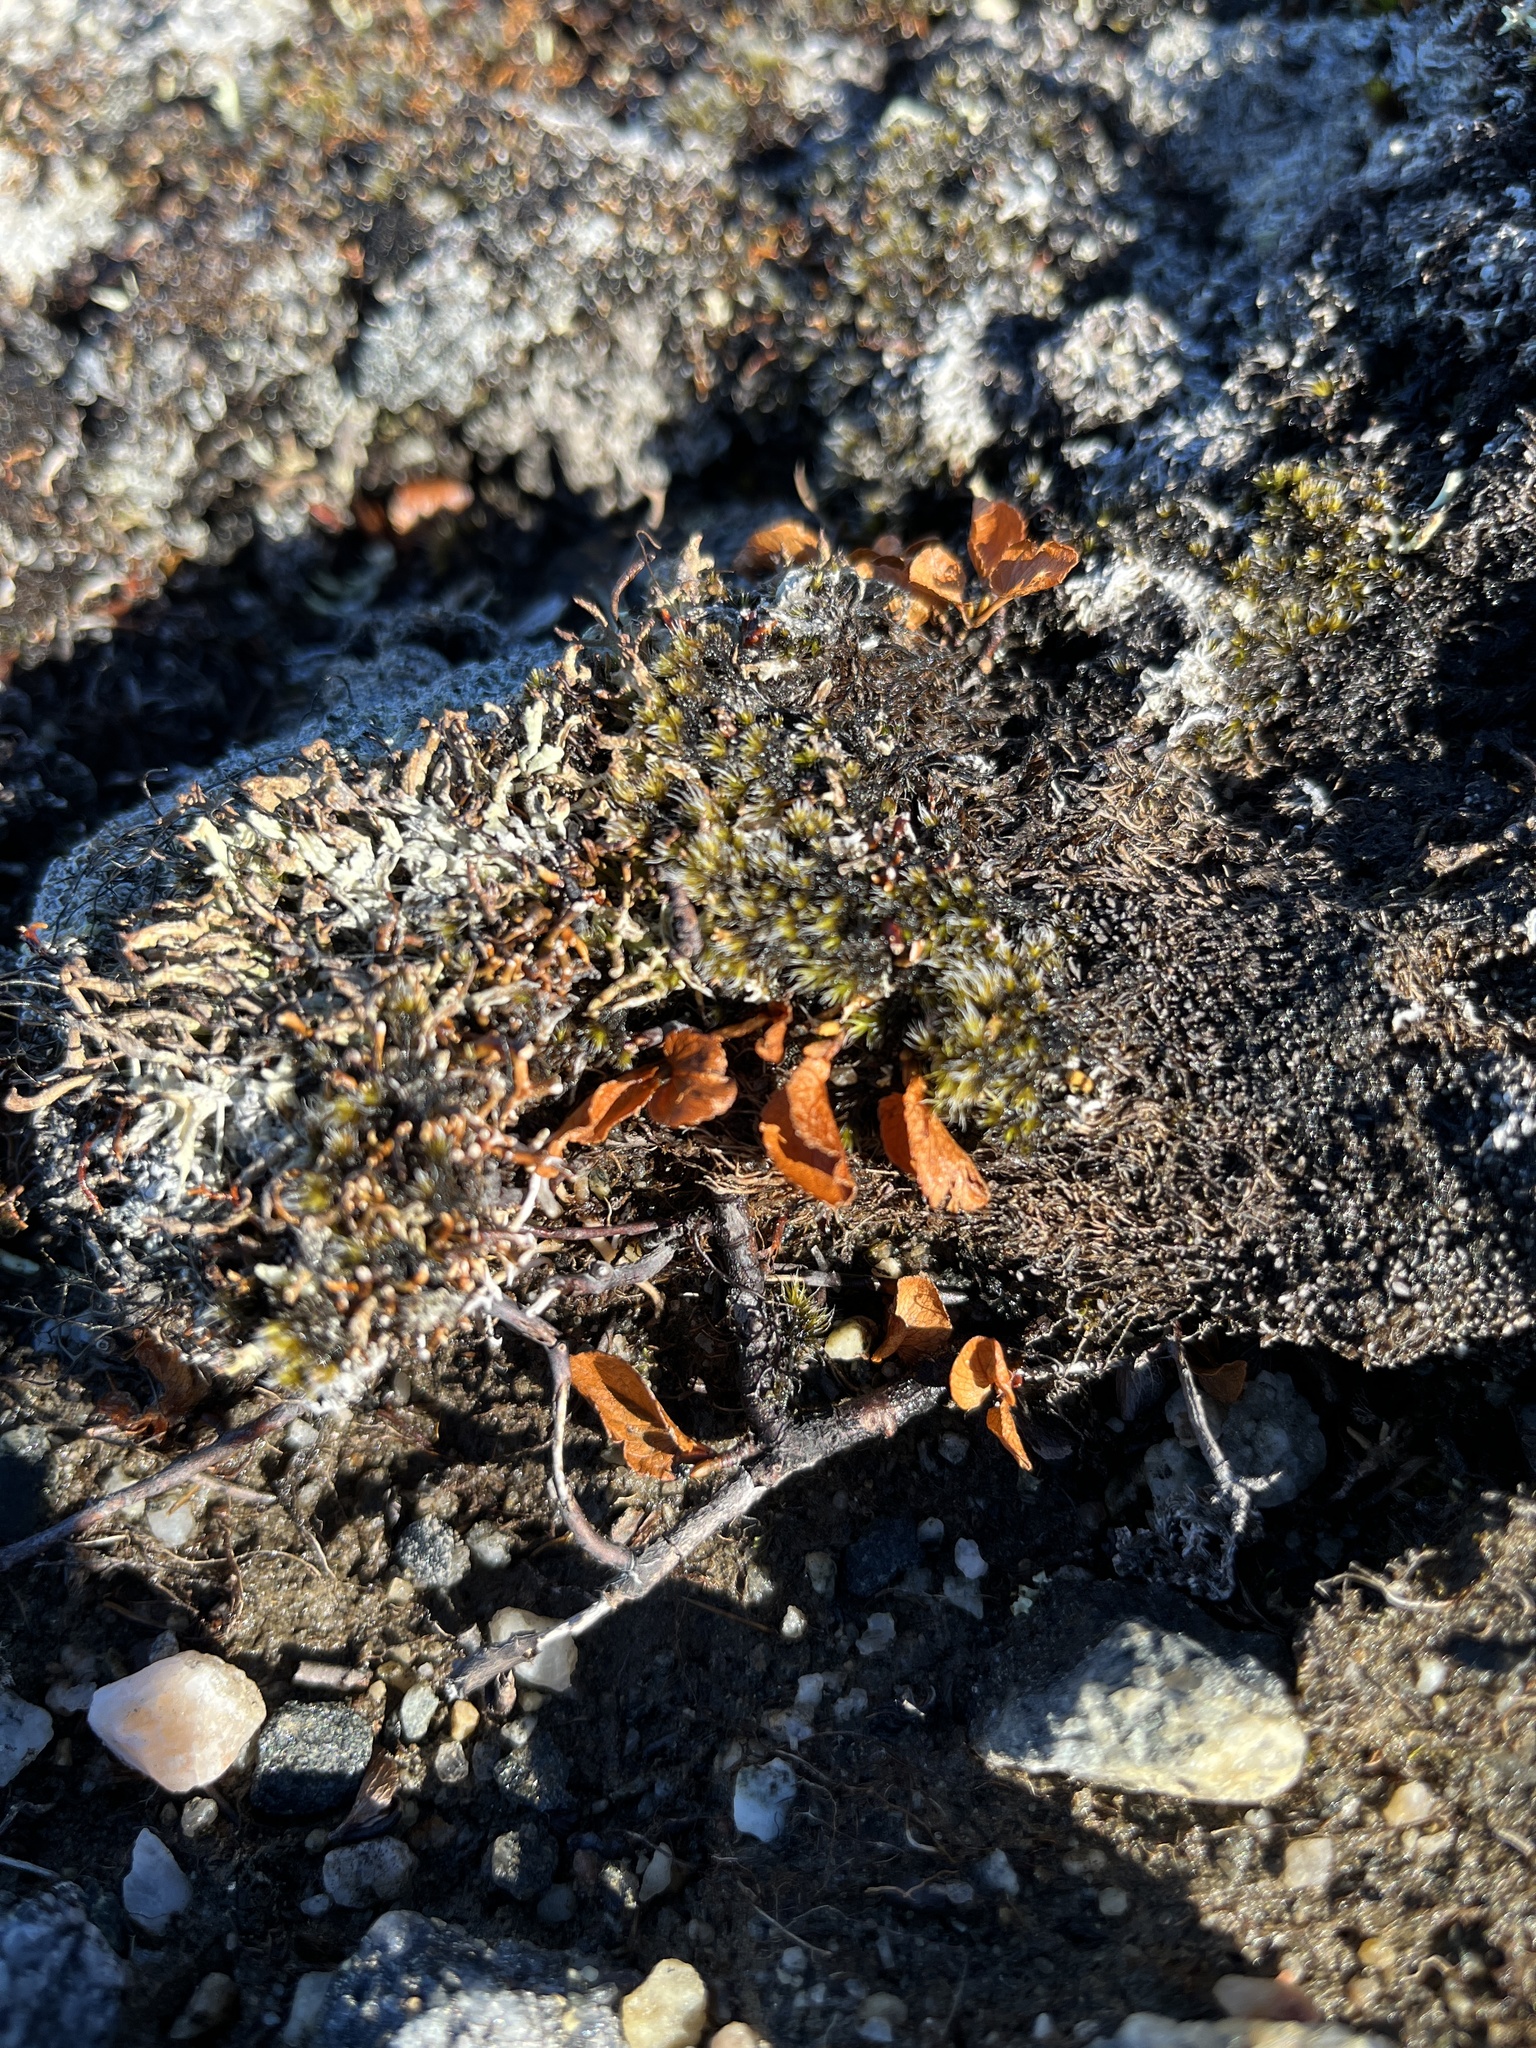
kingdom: Plantae
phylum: Tracheophyta
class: Magnoliopsida
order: Malpighiales
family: Salicaceae
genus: Salix
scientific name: Salix herbacea
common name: Dwarf willow
